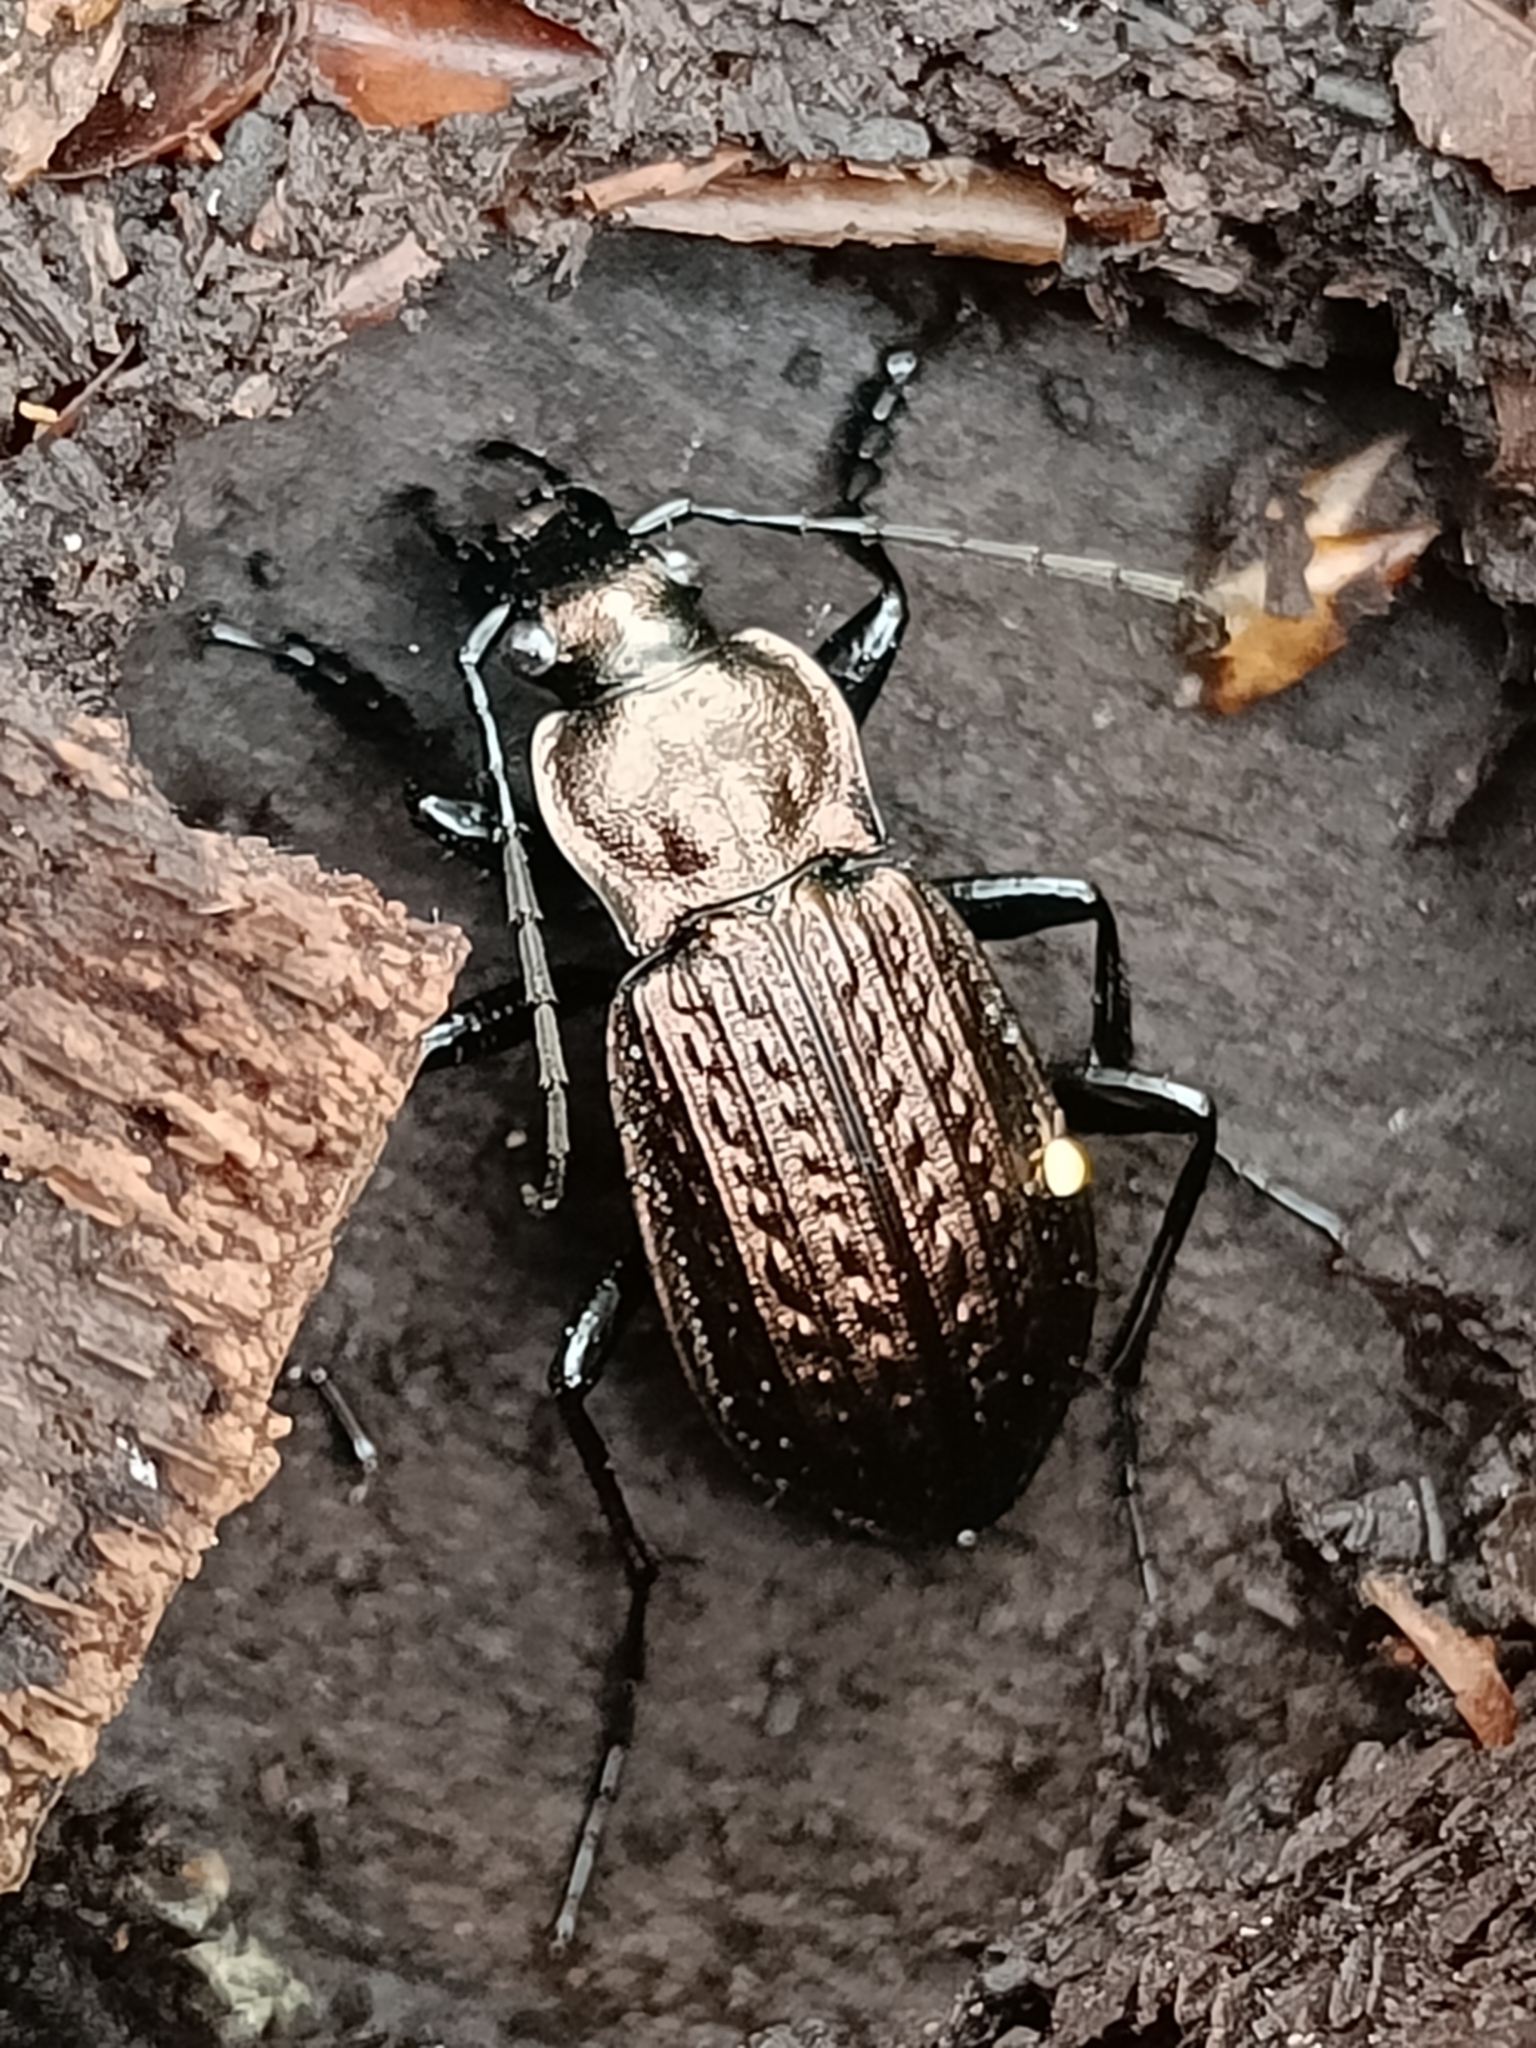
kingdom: Animalia
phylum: Arthropoda
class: Insecta
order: Coleoptera
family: Carabidae
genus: Carabus
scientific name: Carabus granulatus
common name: Granulate ground beetle
